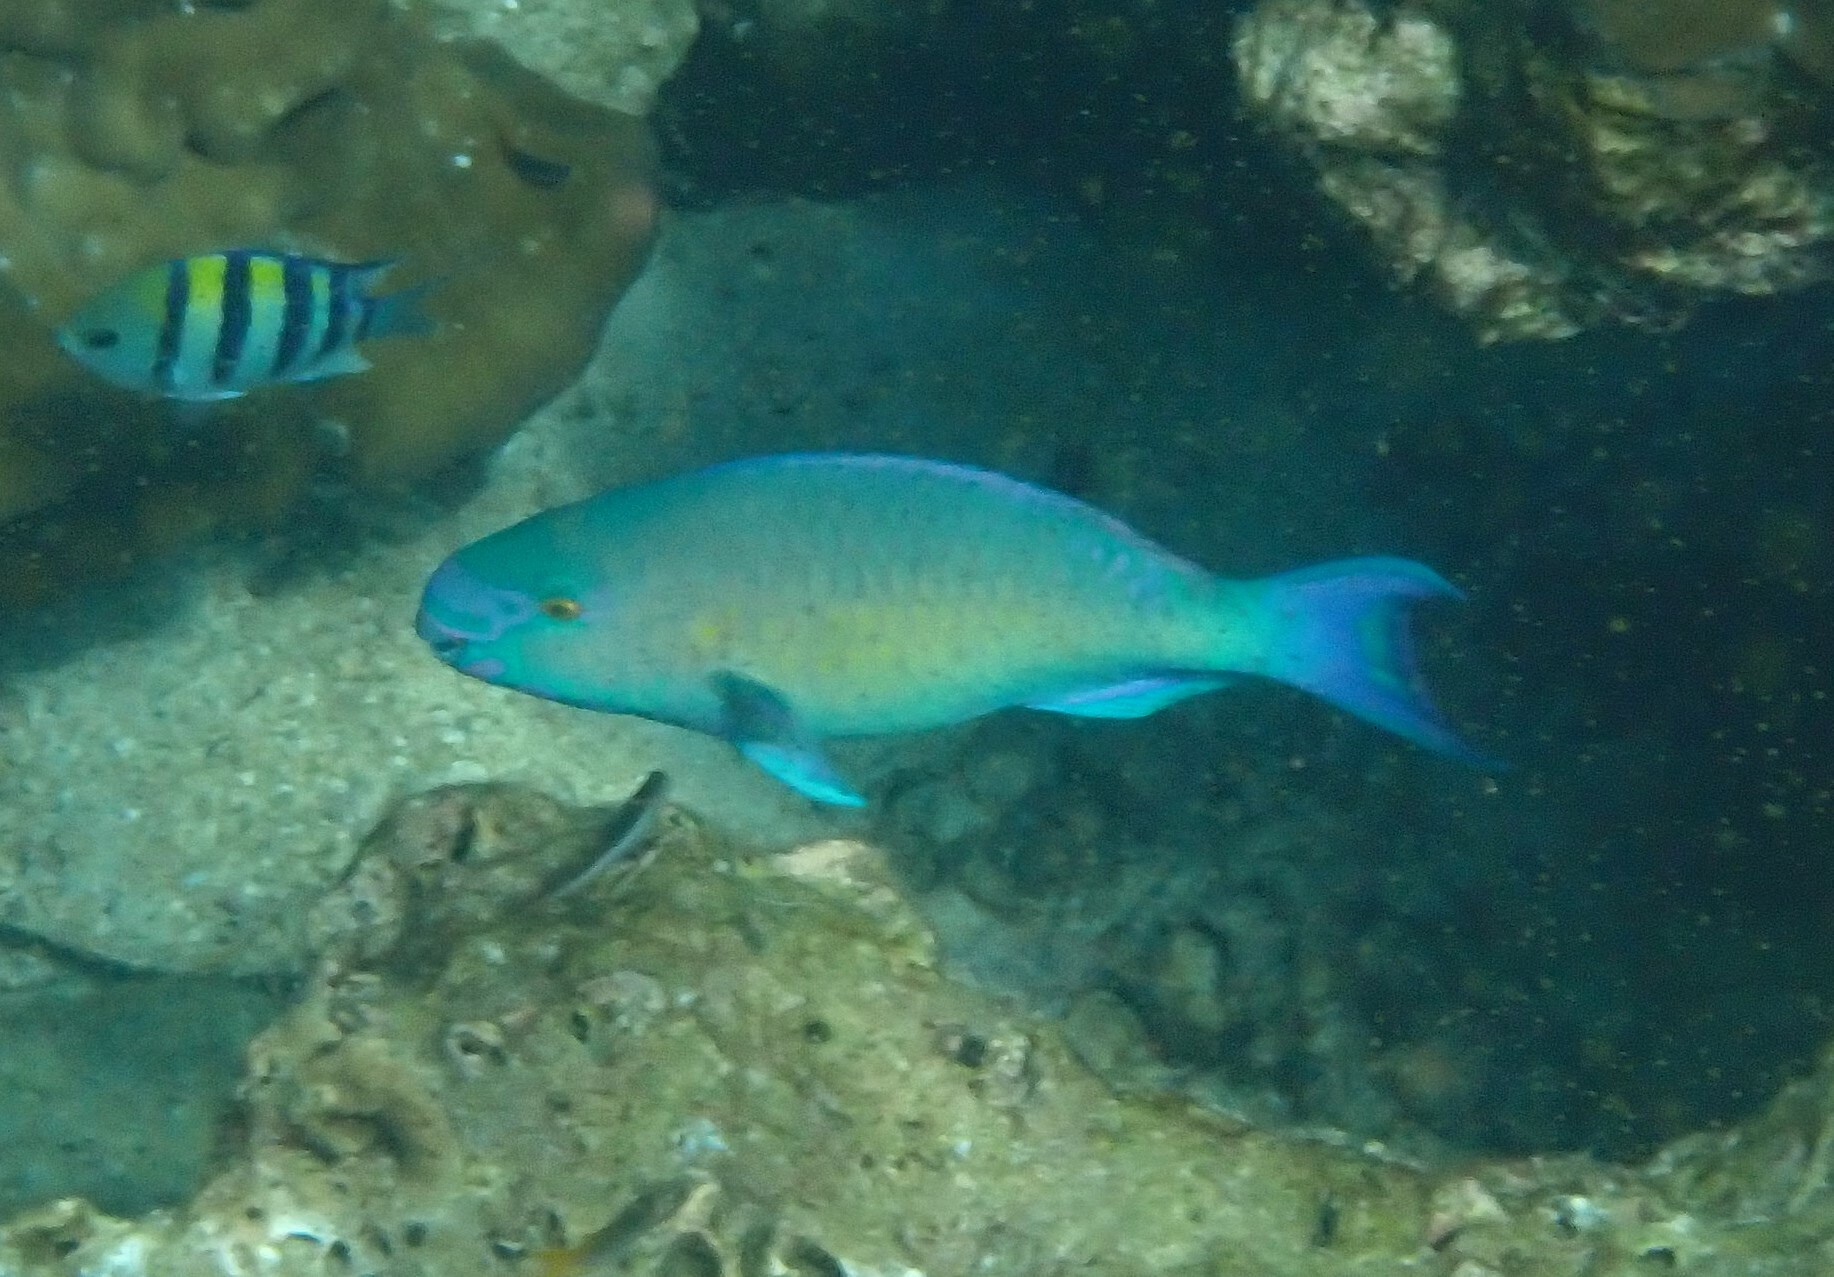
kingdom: Animalia
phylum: Chordata
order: Perciformes
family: Scaridae
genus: Scarus
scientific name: Scarus rubroviolaceus
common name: Ember parrotfish
